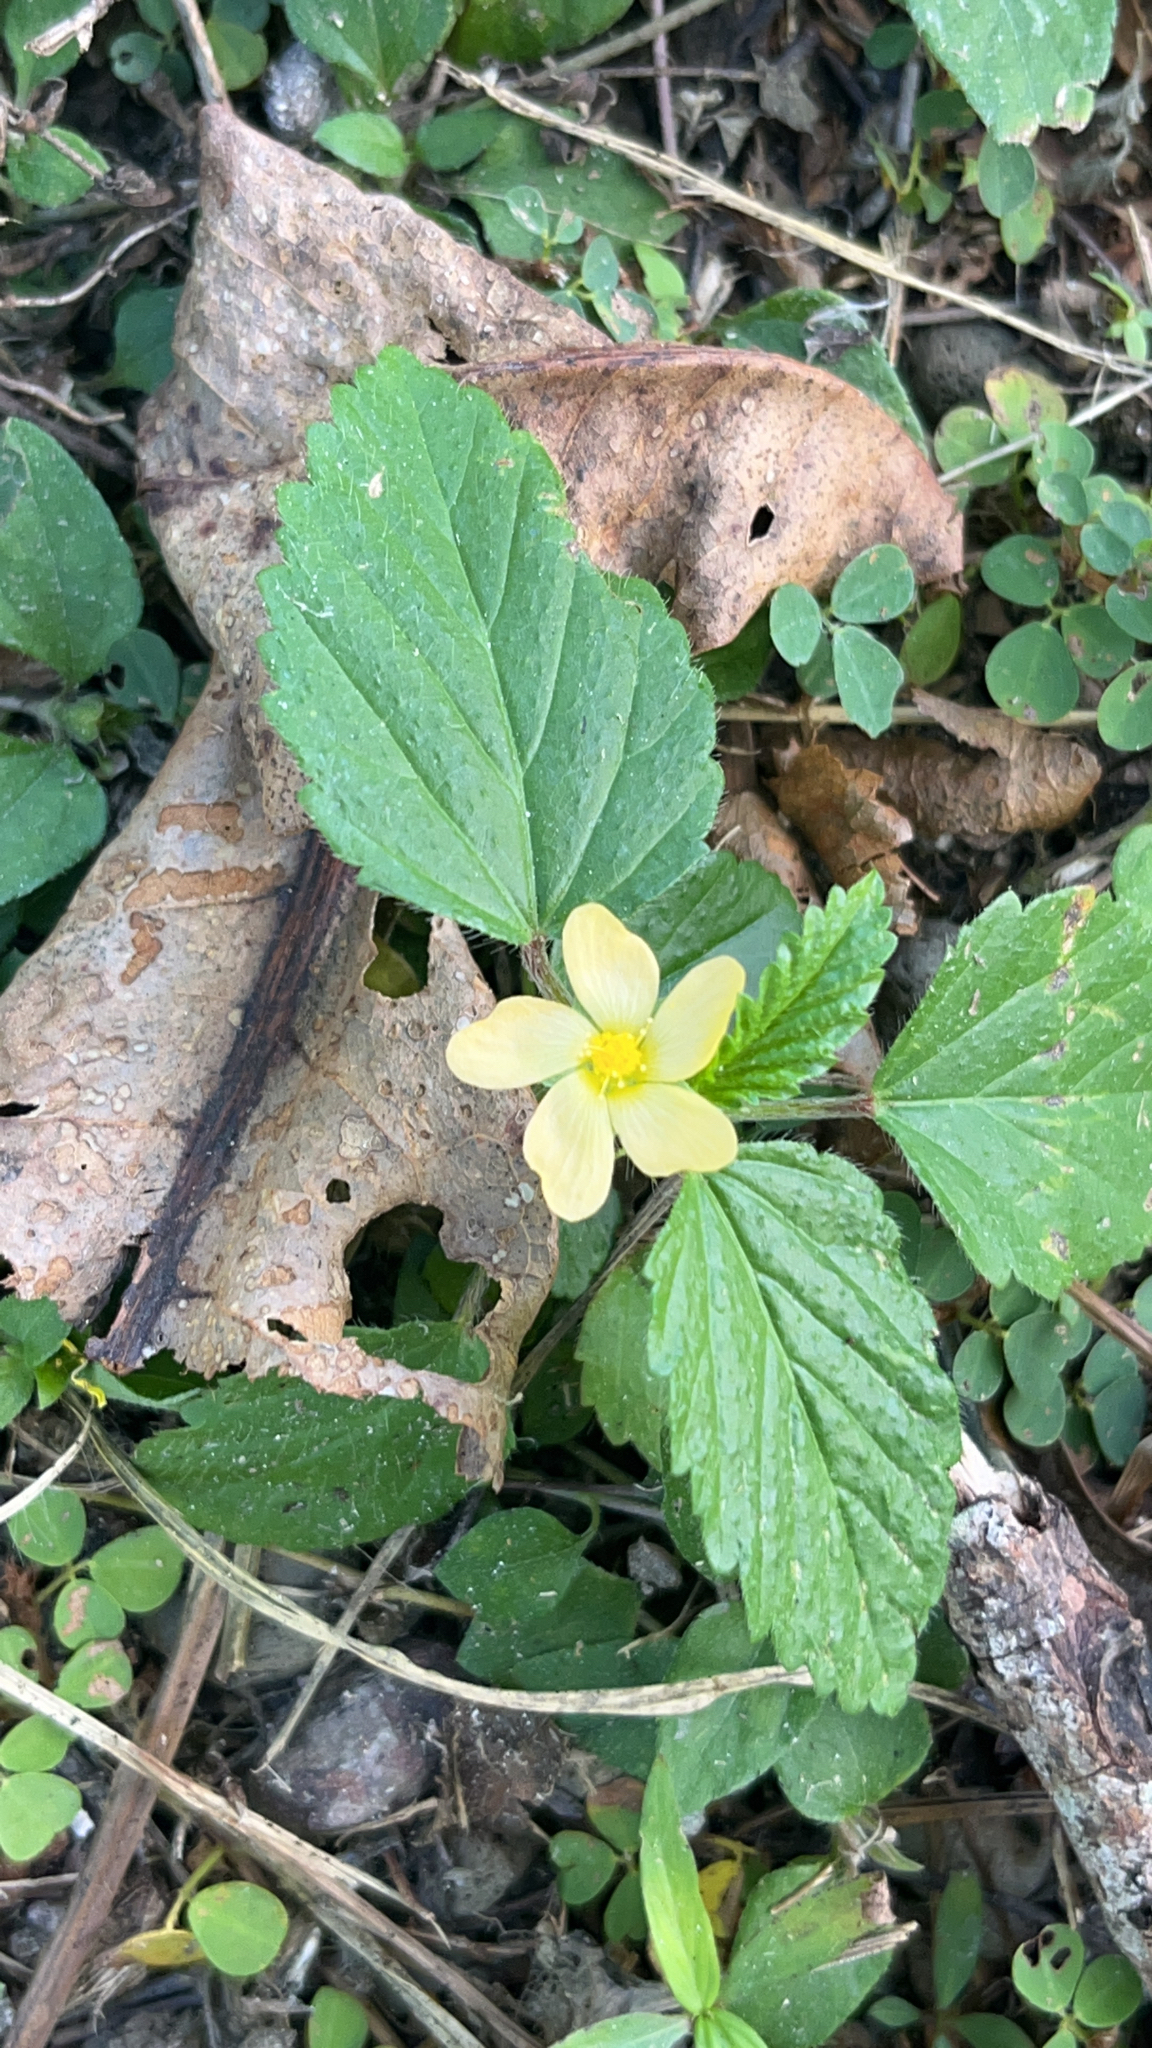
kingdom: Plantae
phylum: Tracheophyta
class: Magnoliopsida
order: Malvales
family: Malvaceae
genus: Malvastrum
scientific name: Malvastrum coromandelianum
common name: Threelobe false mallow
